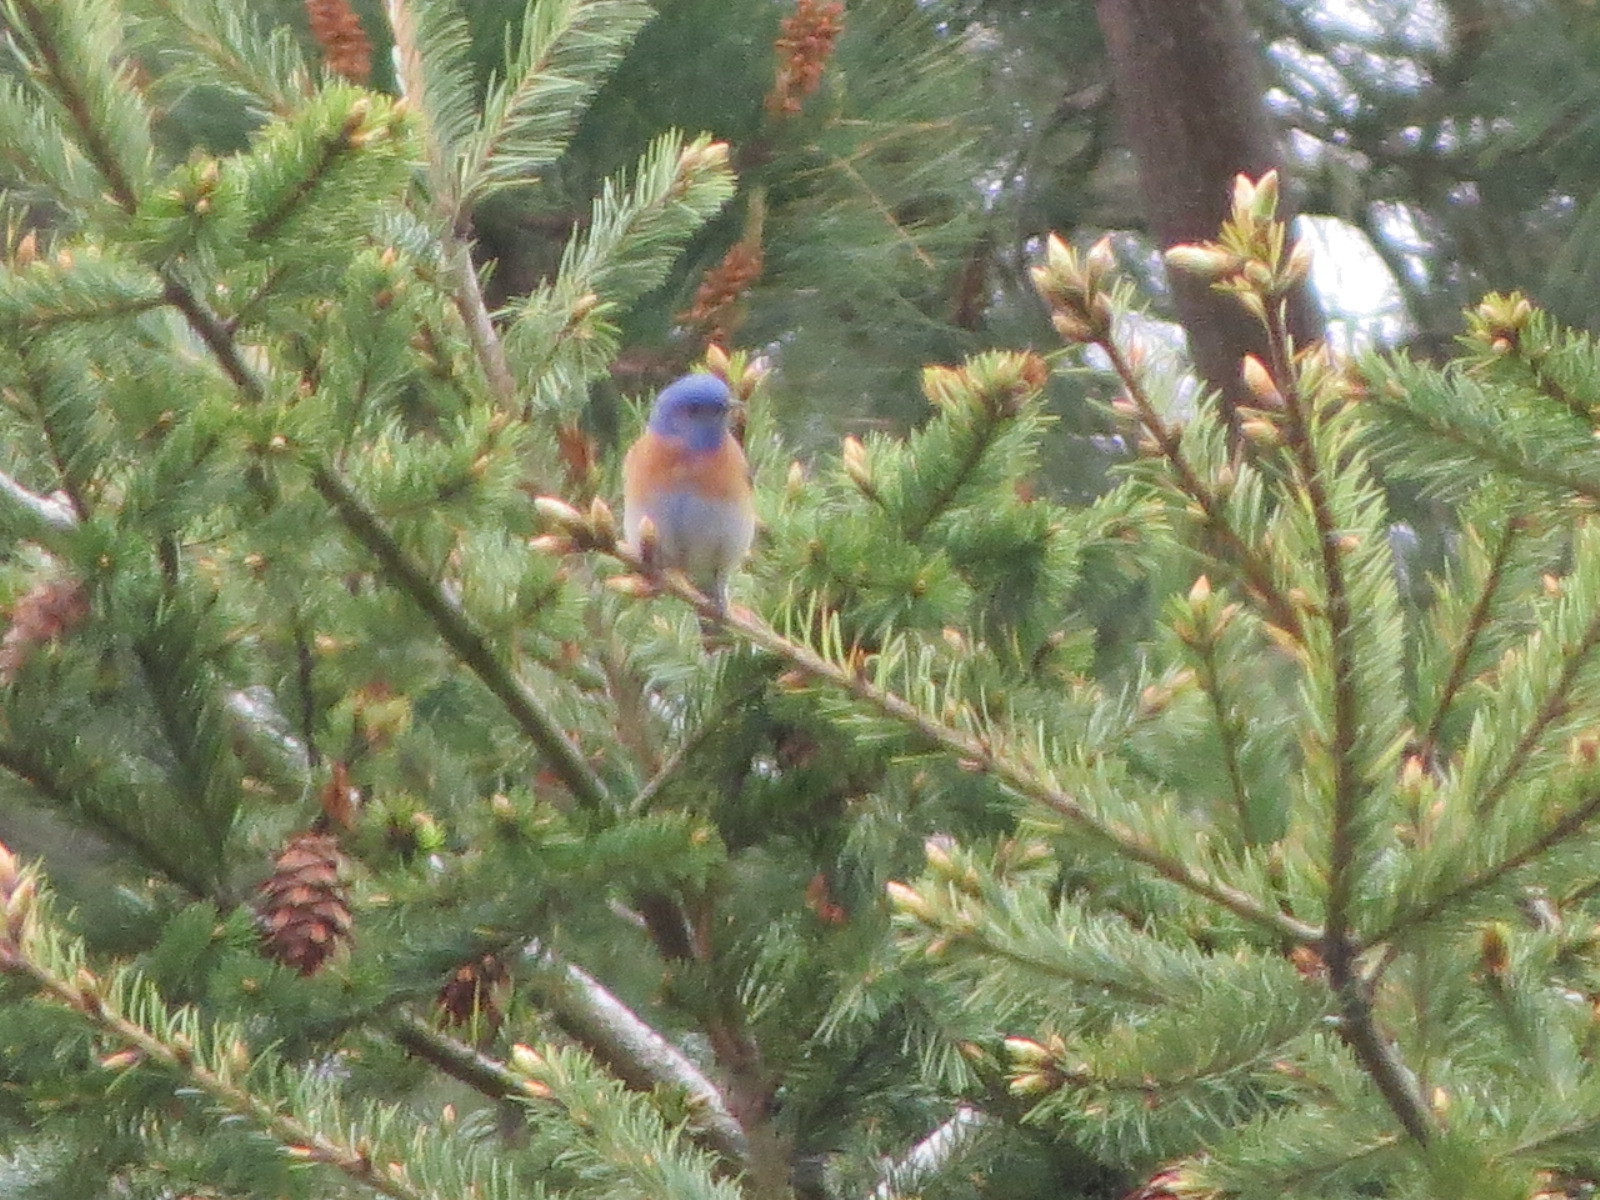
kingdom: Animalia
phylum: Chordata
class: Aves
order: Passeriformes
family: Turdidae
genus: Sialia
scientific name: Sialia mexicana
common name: Western bluebird
